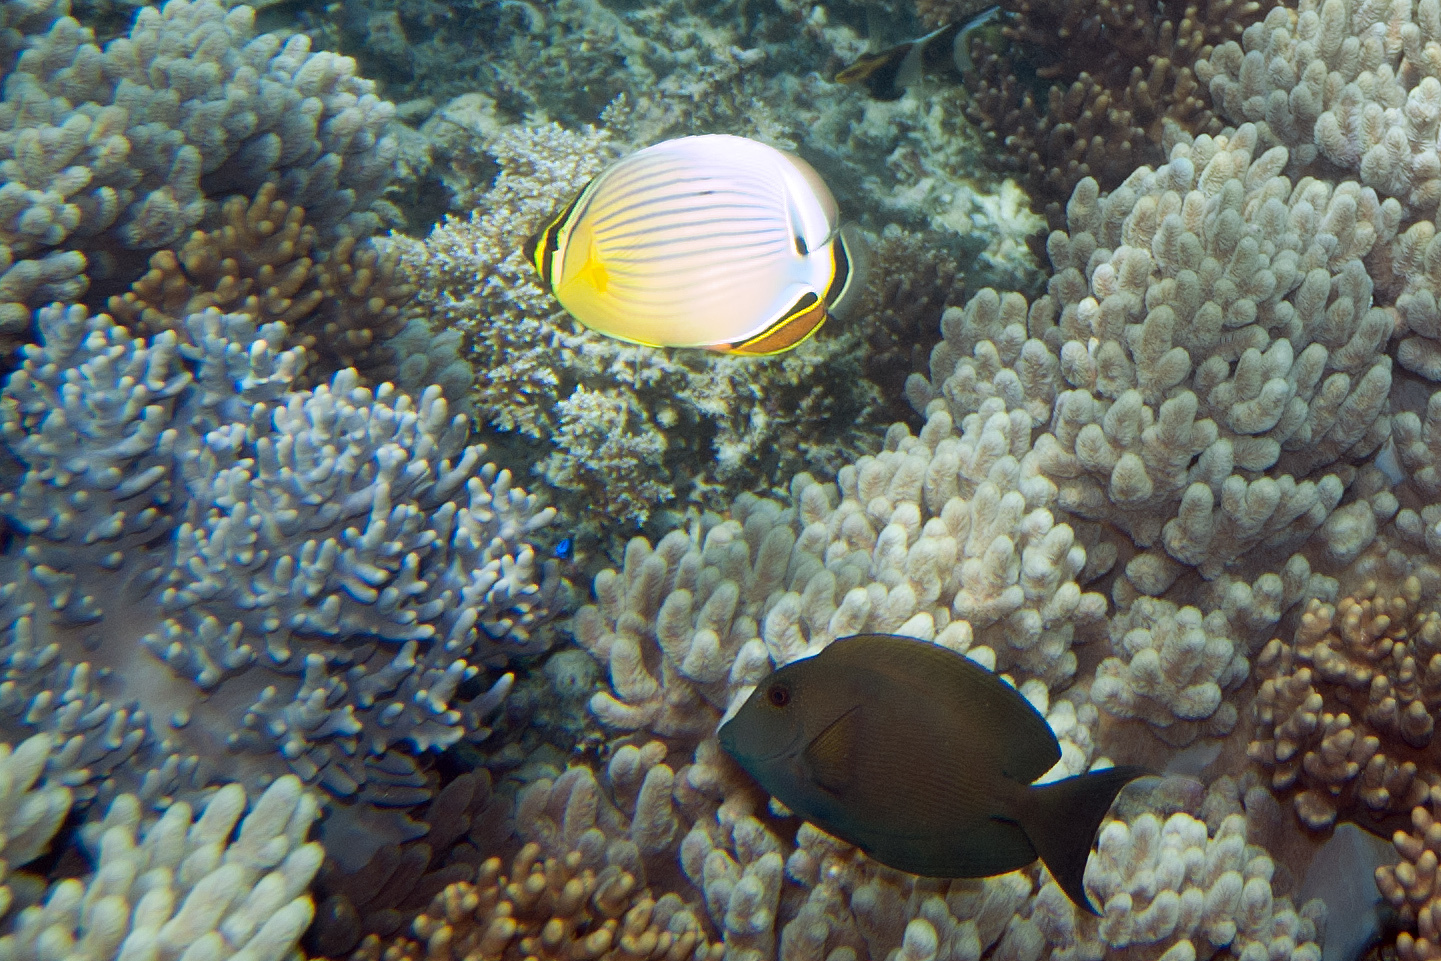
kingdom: Animalia
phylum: Chordata
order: Perciformes
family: Acanthuridae
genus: Ctenochaetus
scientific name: Ctenochaetus striatus
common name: Bristle-toothed surgeonfish
